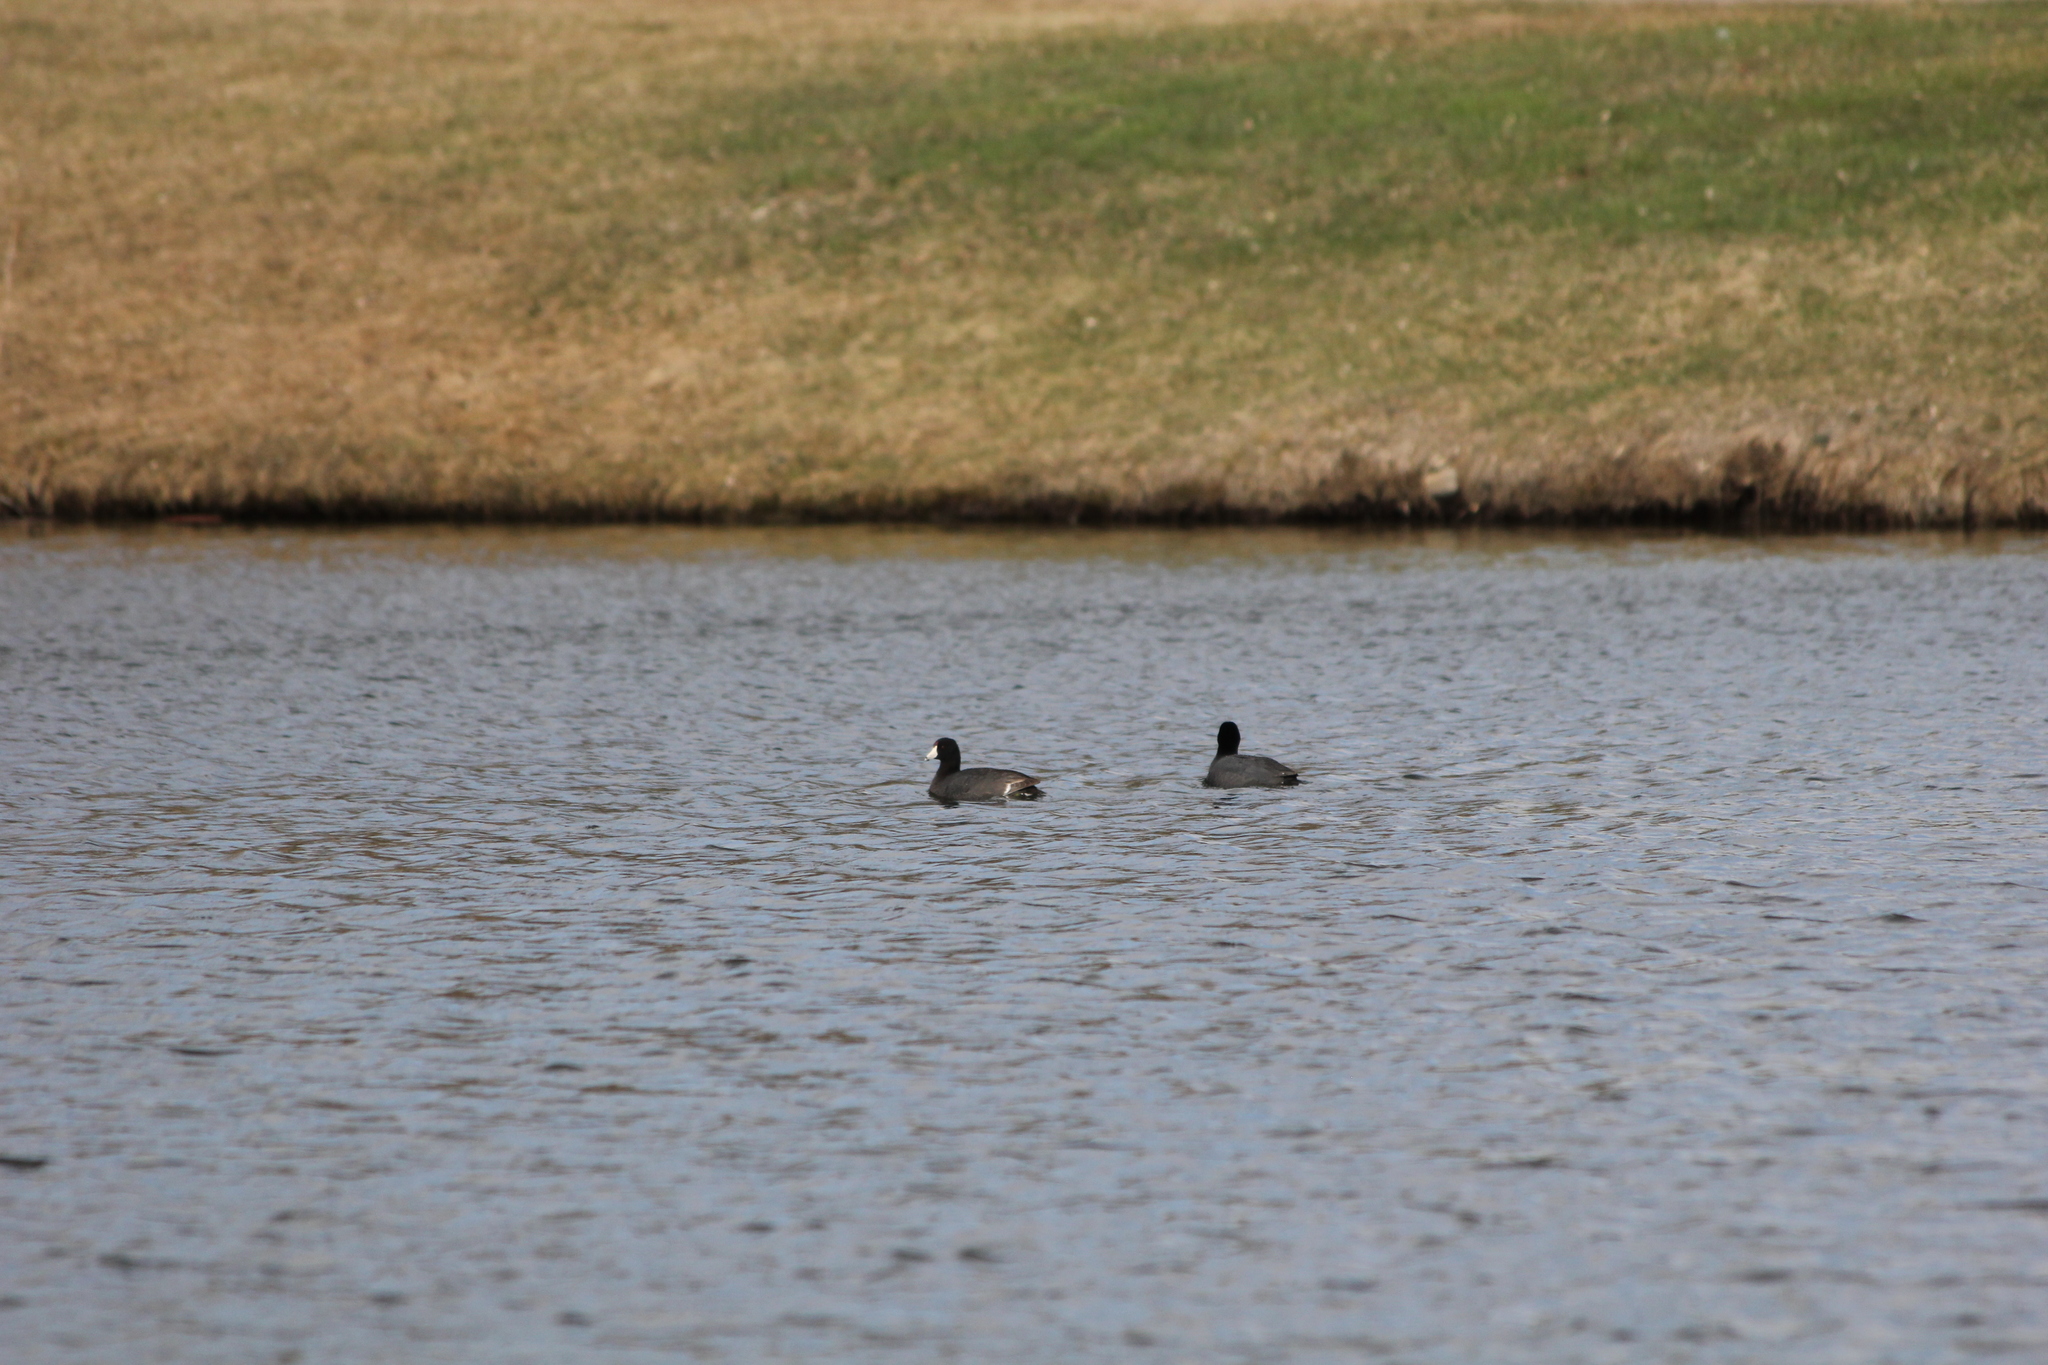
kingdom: Animalia
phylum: Chordata
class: Aves
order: Gruiformes
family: Rallidae
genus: Fulica
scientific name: Fulica americana
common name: American coot
